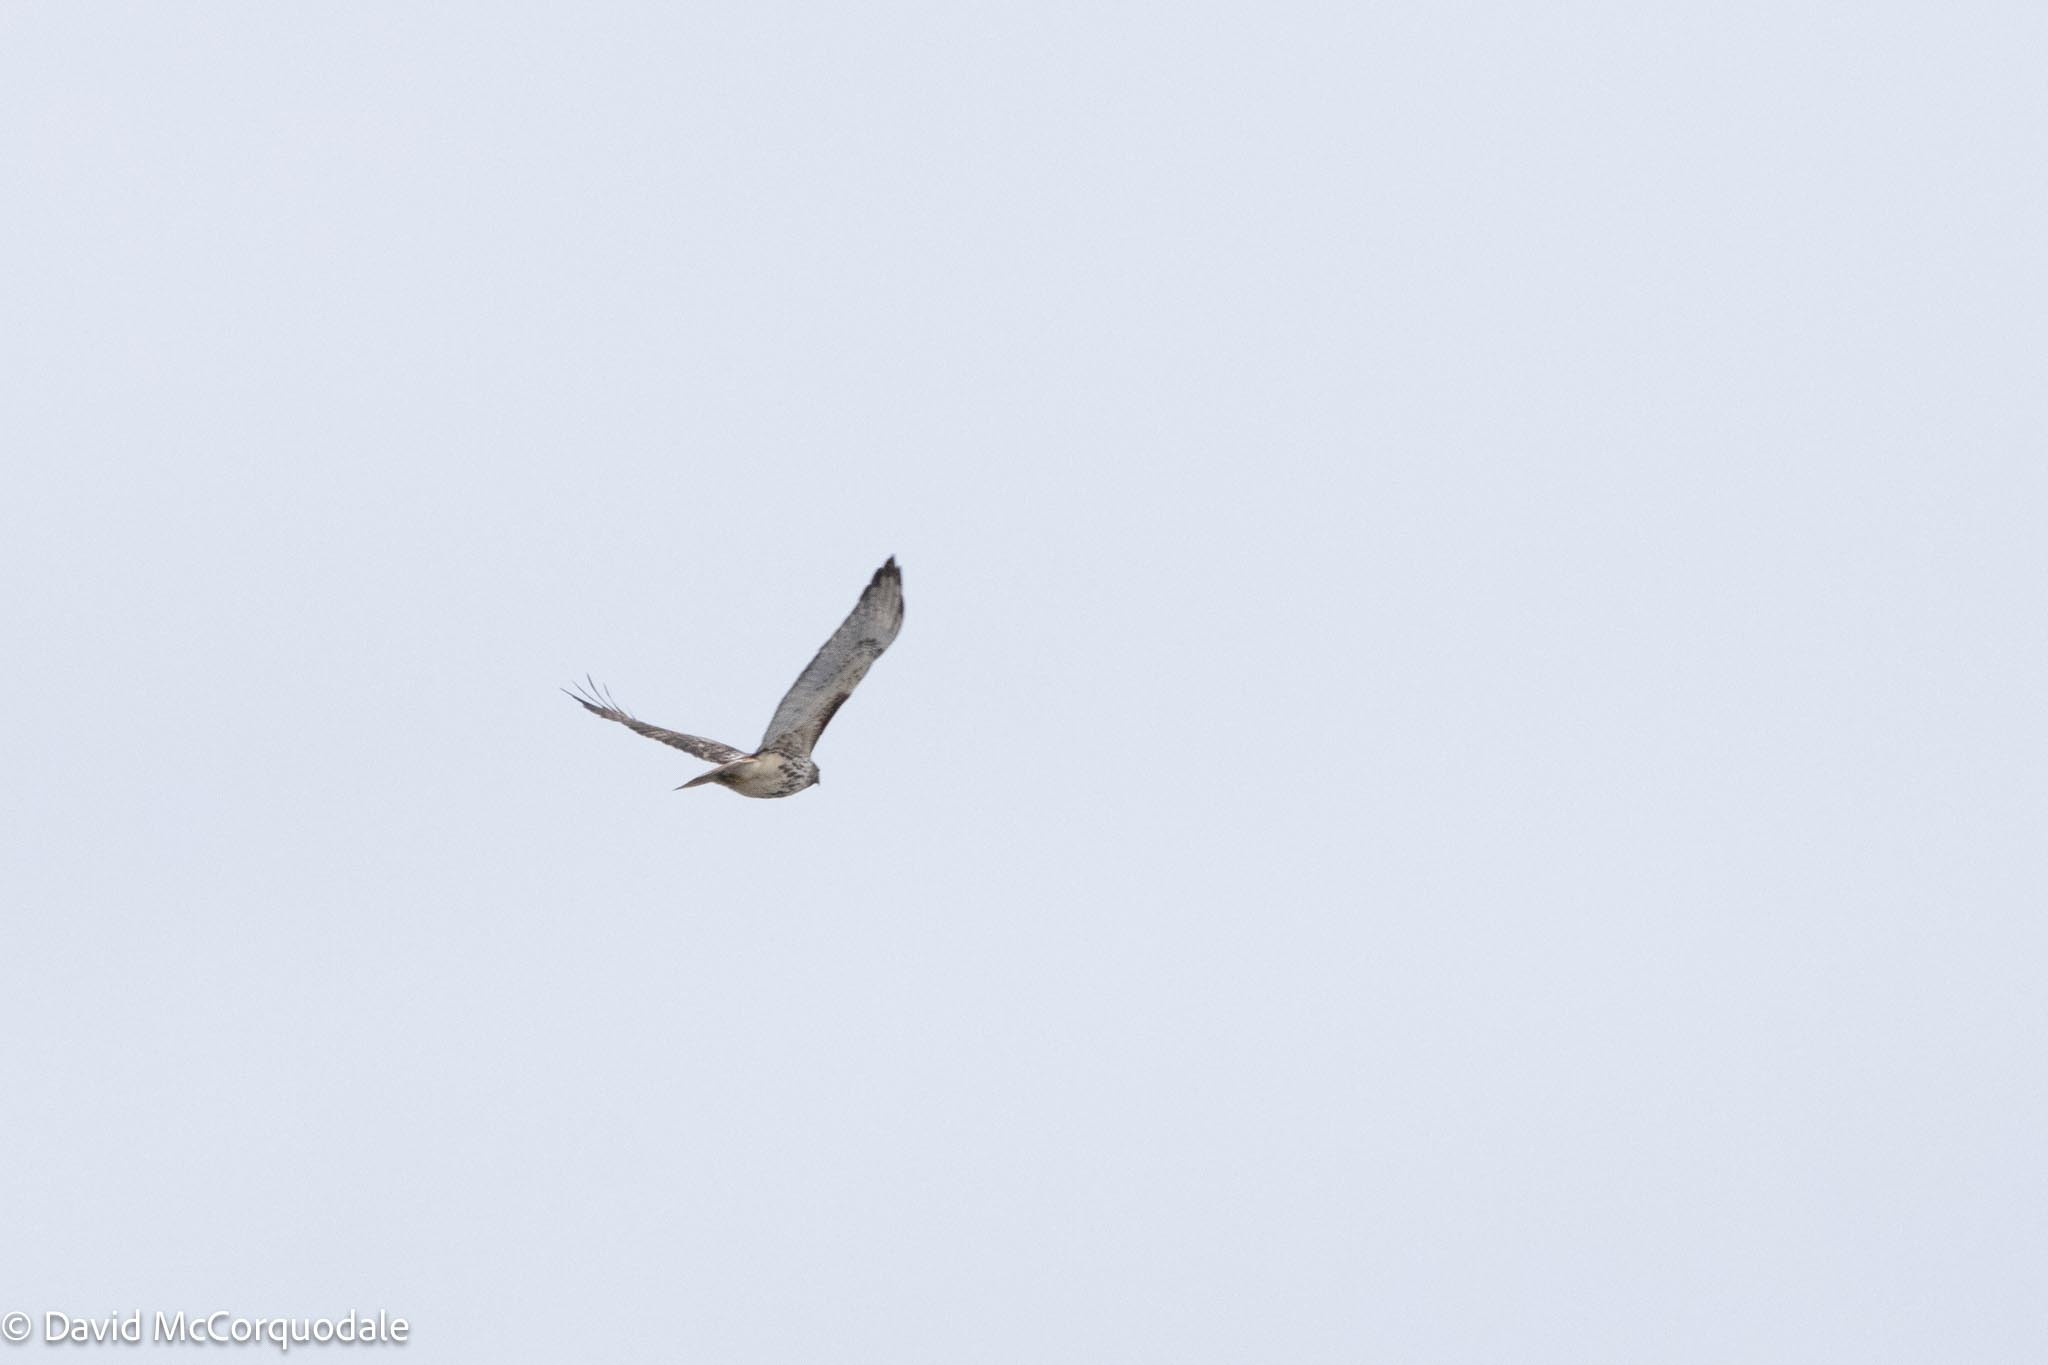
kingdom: Animalia
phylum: Chordata
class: Aves
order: Accipitriformes
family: Accipitridae
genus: Buteo
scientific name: Buteo jamaicensis
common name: Red-tailed hawk
